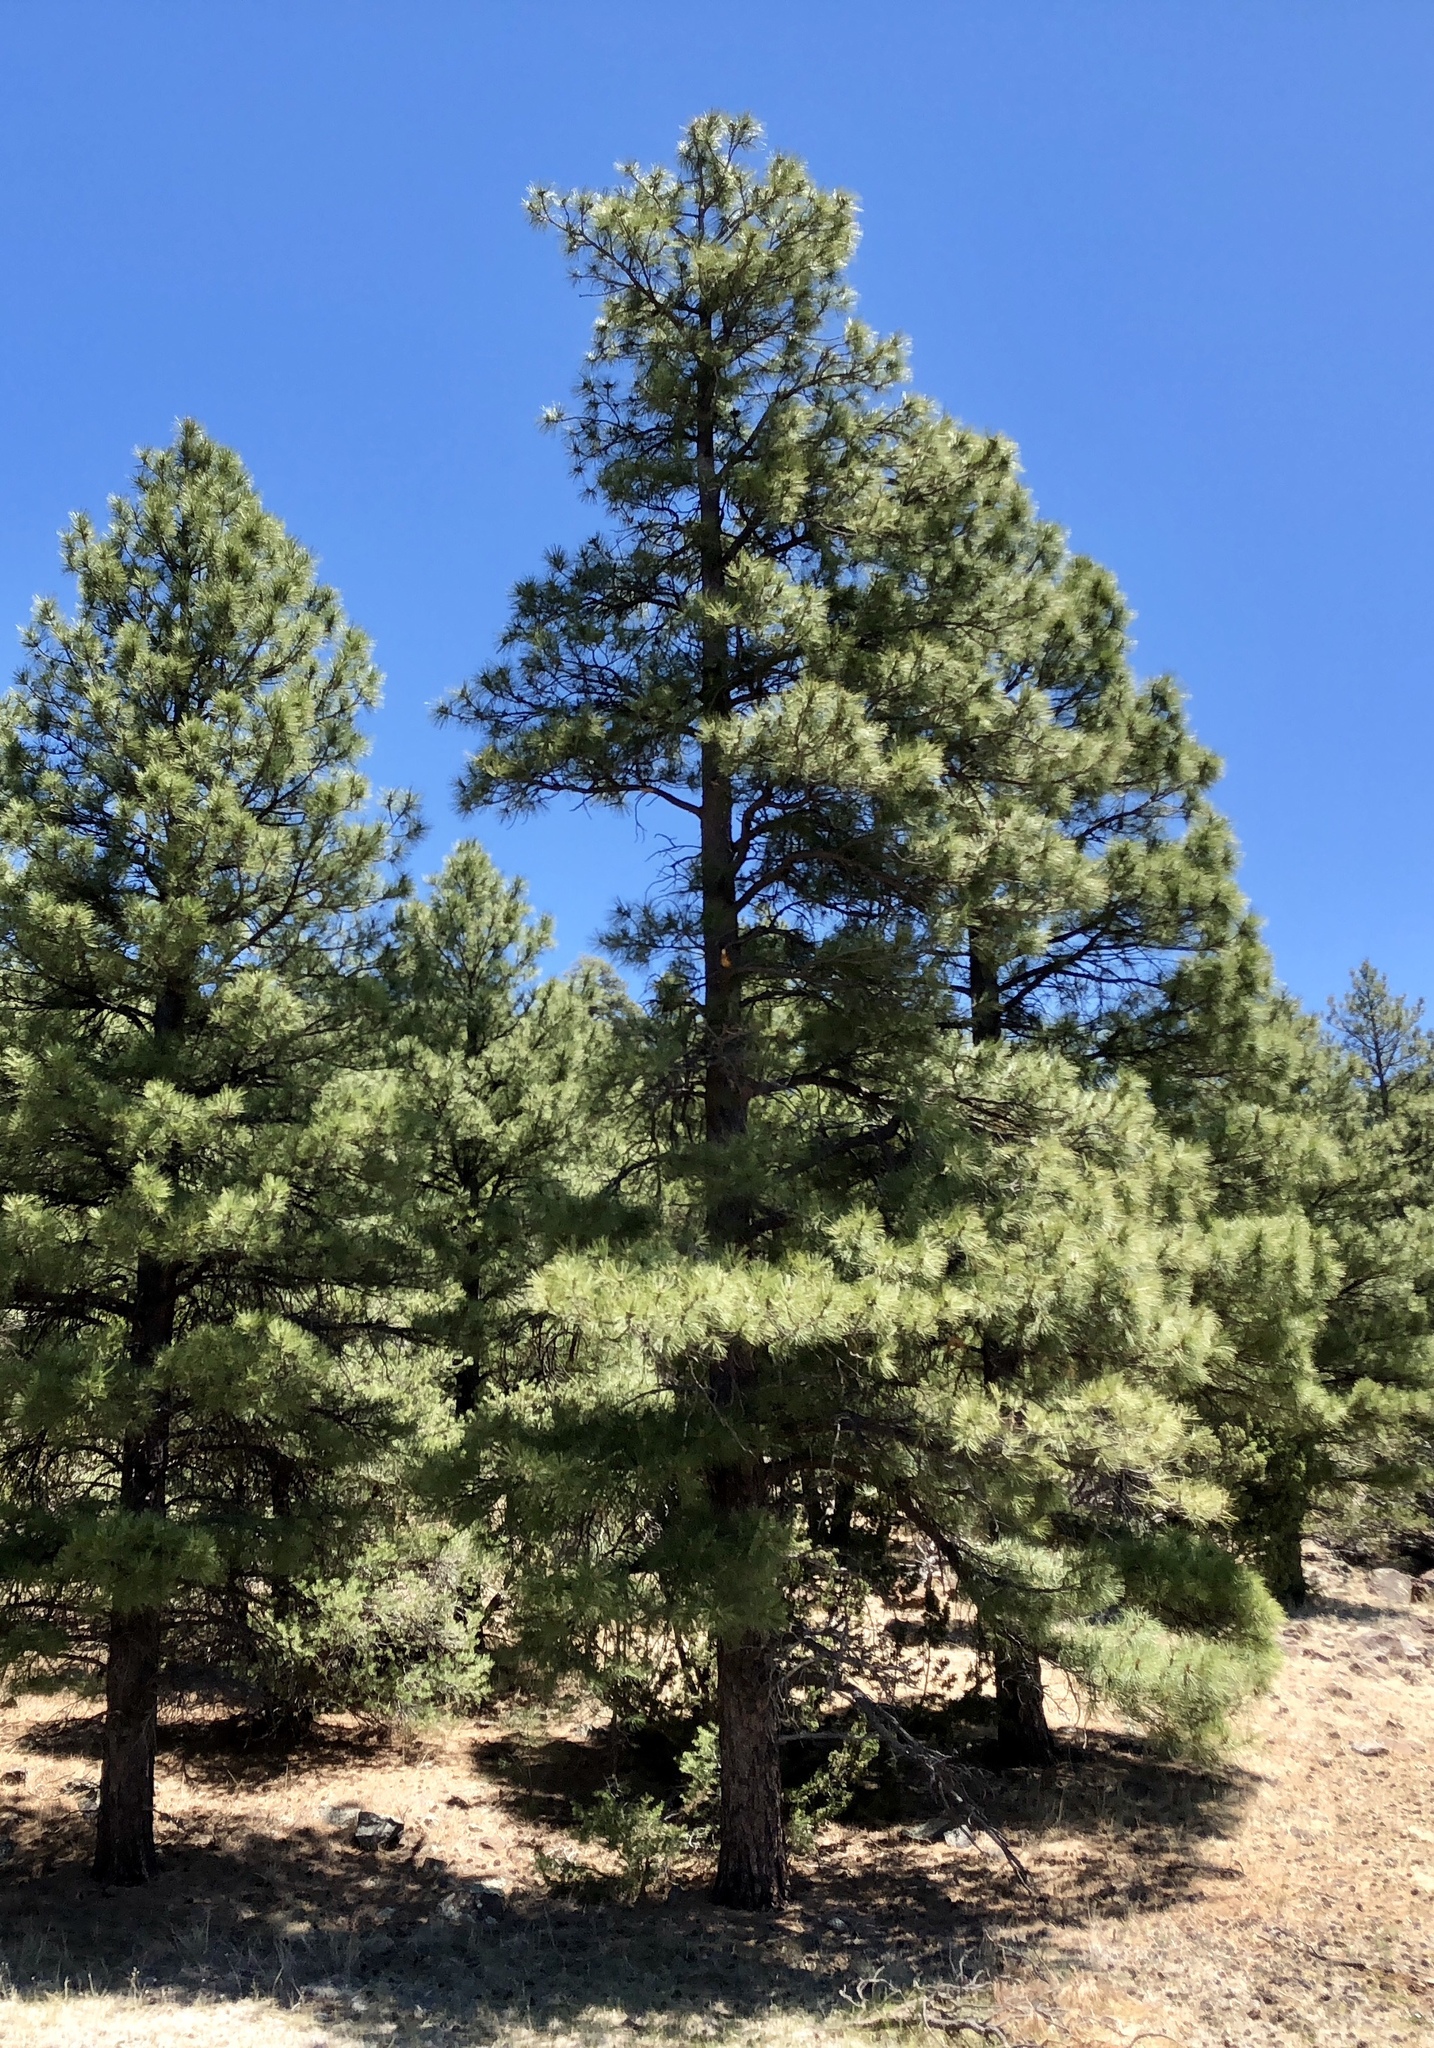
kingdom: Plantae
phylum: Tracheophyta
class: Pinopsida
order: Pinales
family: Pinaceae
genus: Pinus
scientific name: Pinus ponderosa
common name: Western yellow-pine
